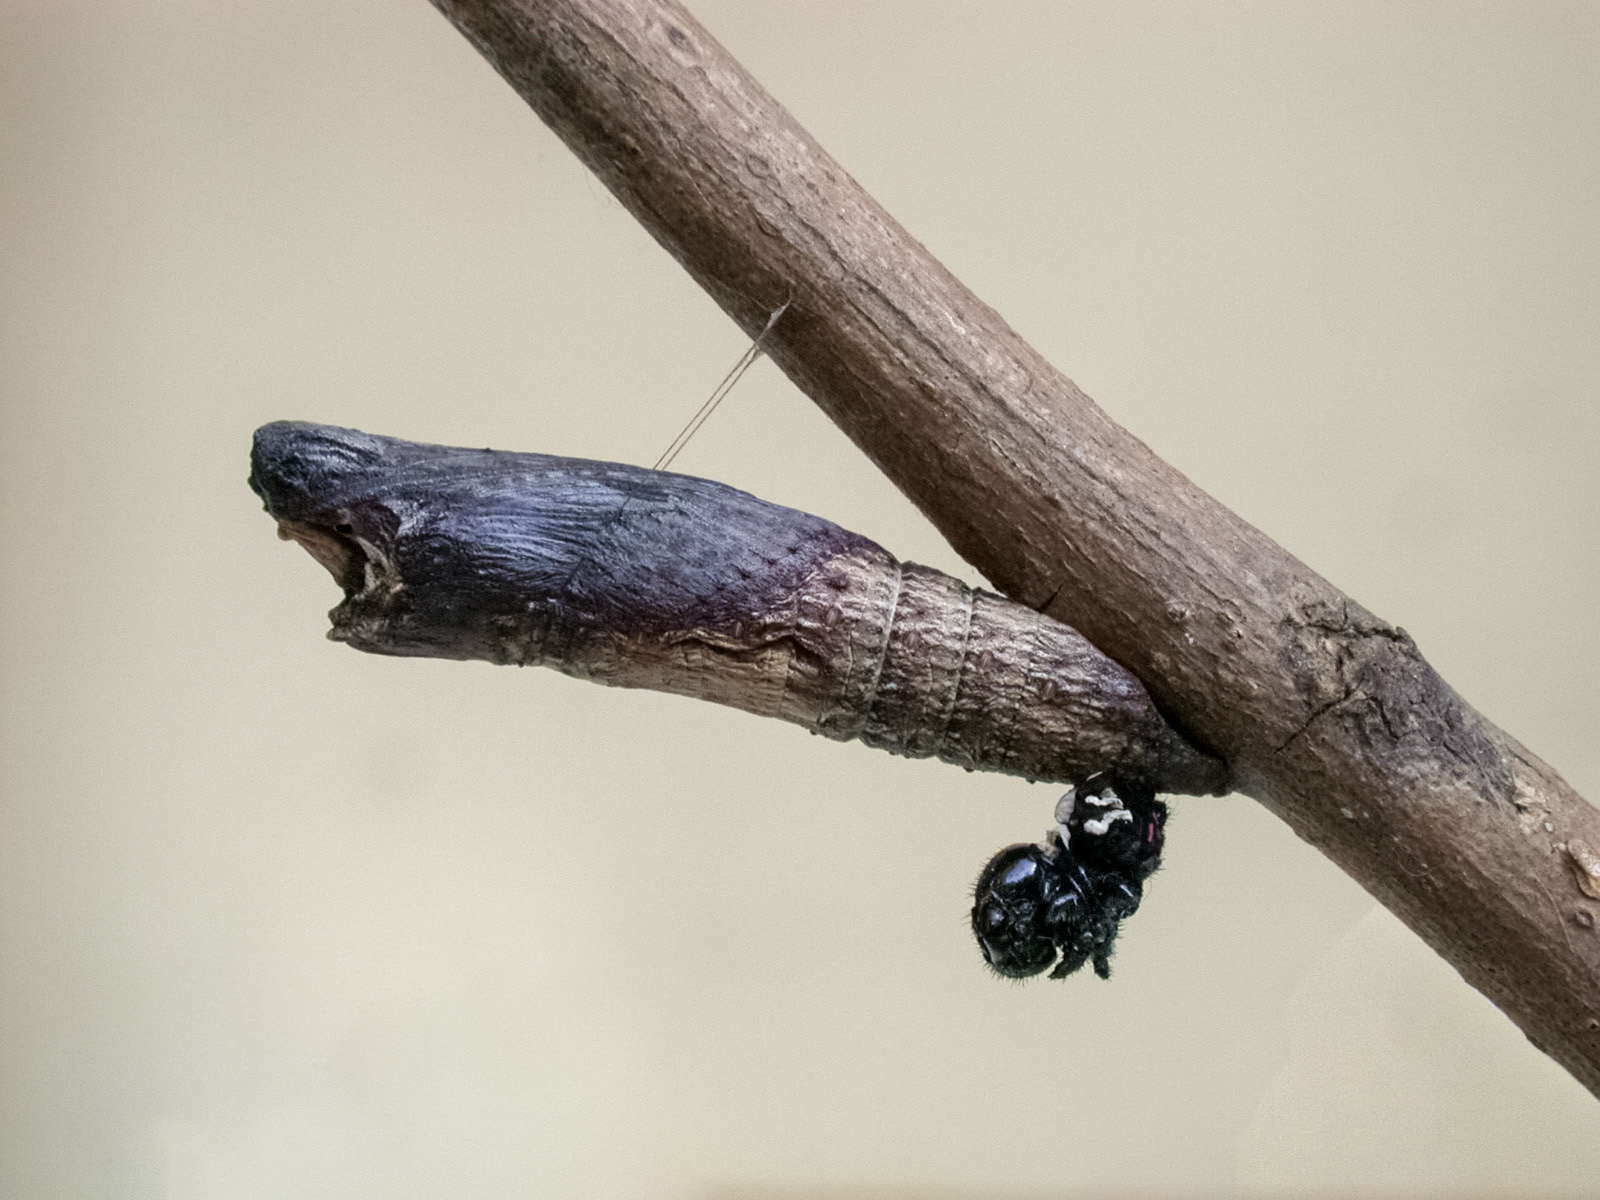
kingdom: Animalia
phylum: Arthropoda
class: Insecta
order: Lepidoptera
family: Papilionidae
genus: Chilasa
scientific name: Chilasa clytia
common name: Common mime
